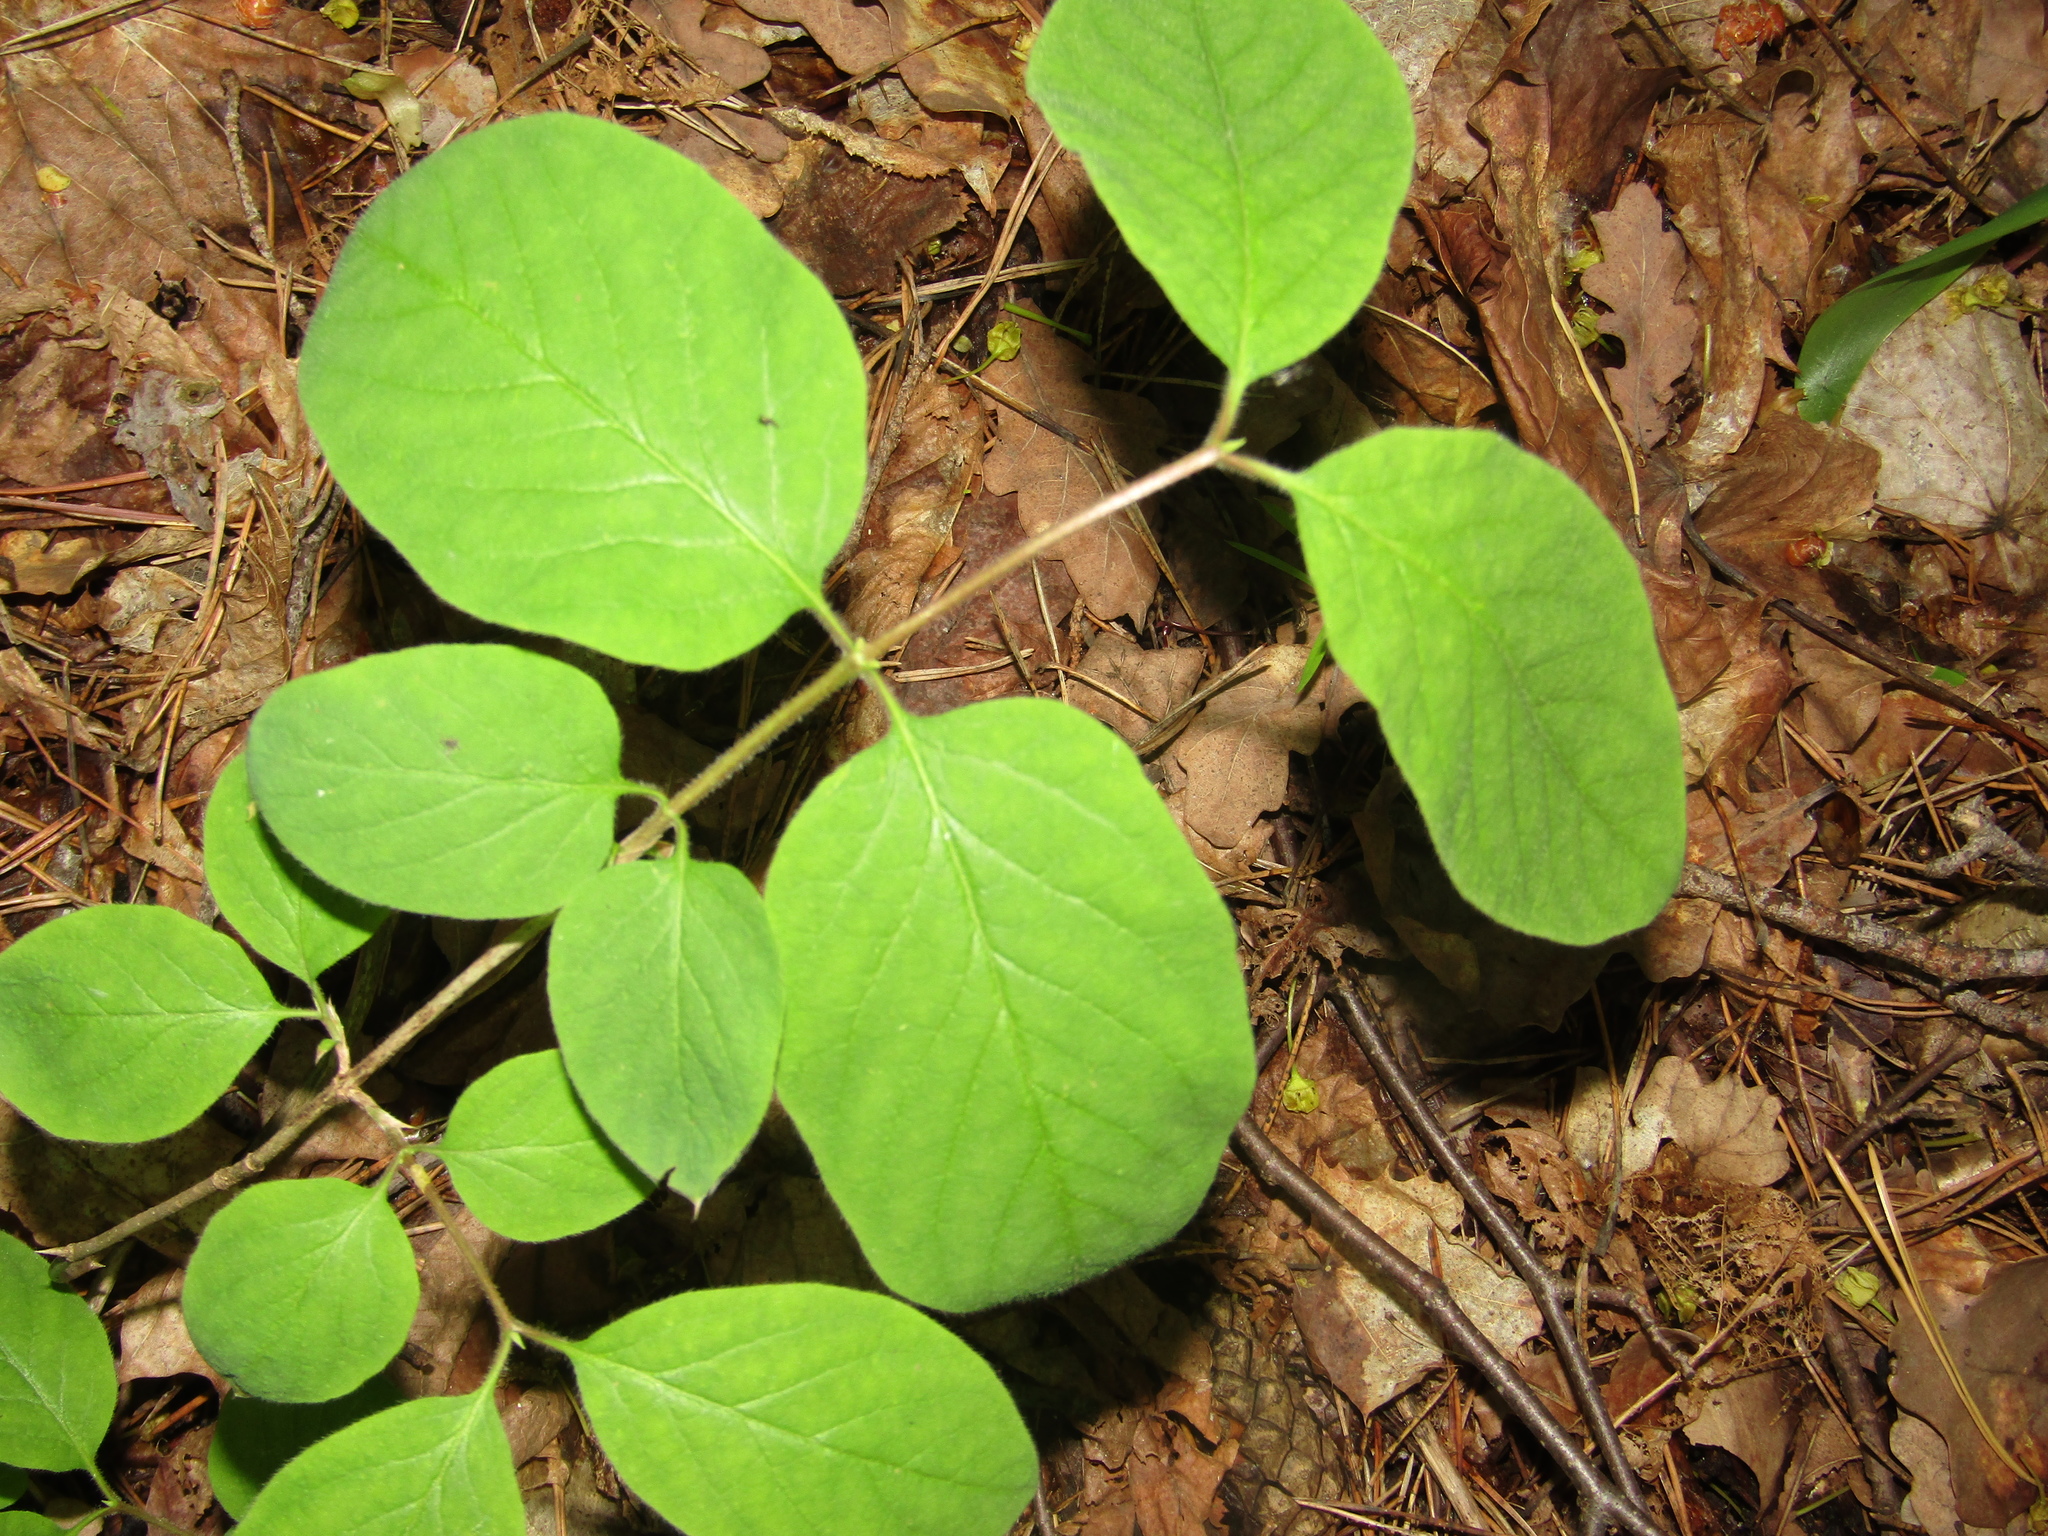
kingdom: Plantae
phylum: Tracheophyta
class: Magnoliopsida
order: Dipsacales
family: Caprifoliaceae
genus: Lonicera
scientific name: Lonicera xylosteum
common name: Fly honeysuckle
